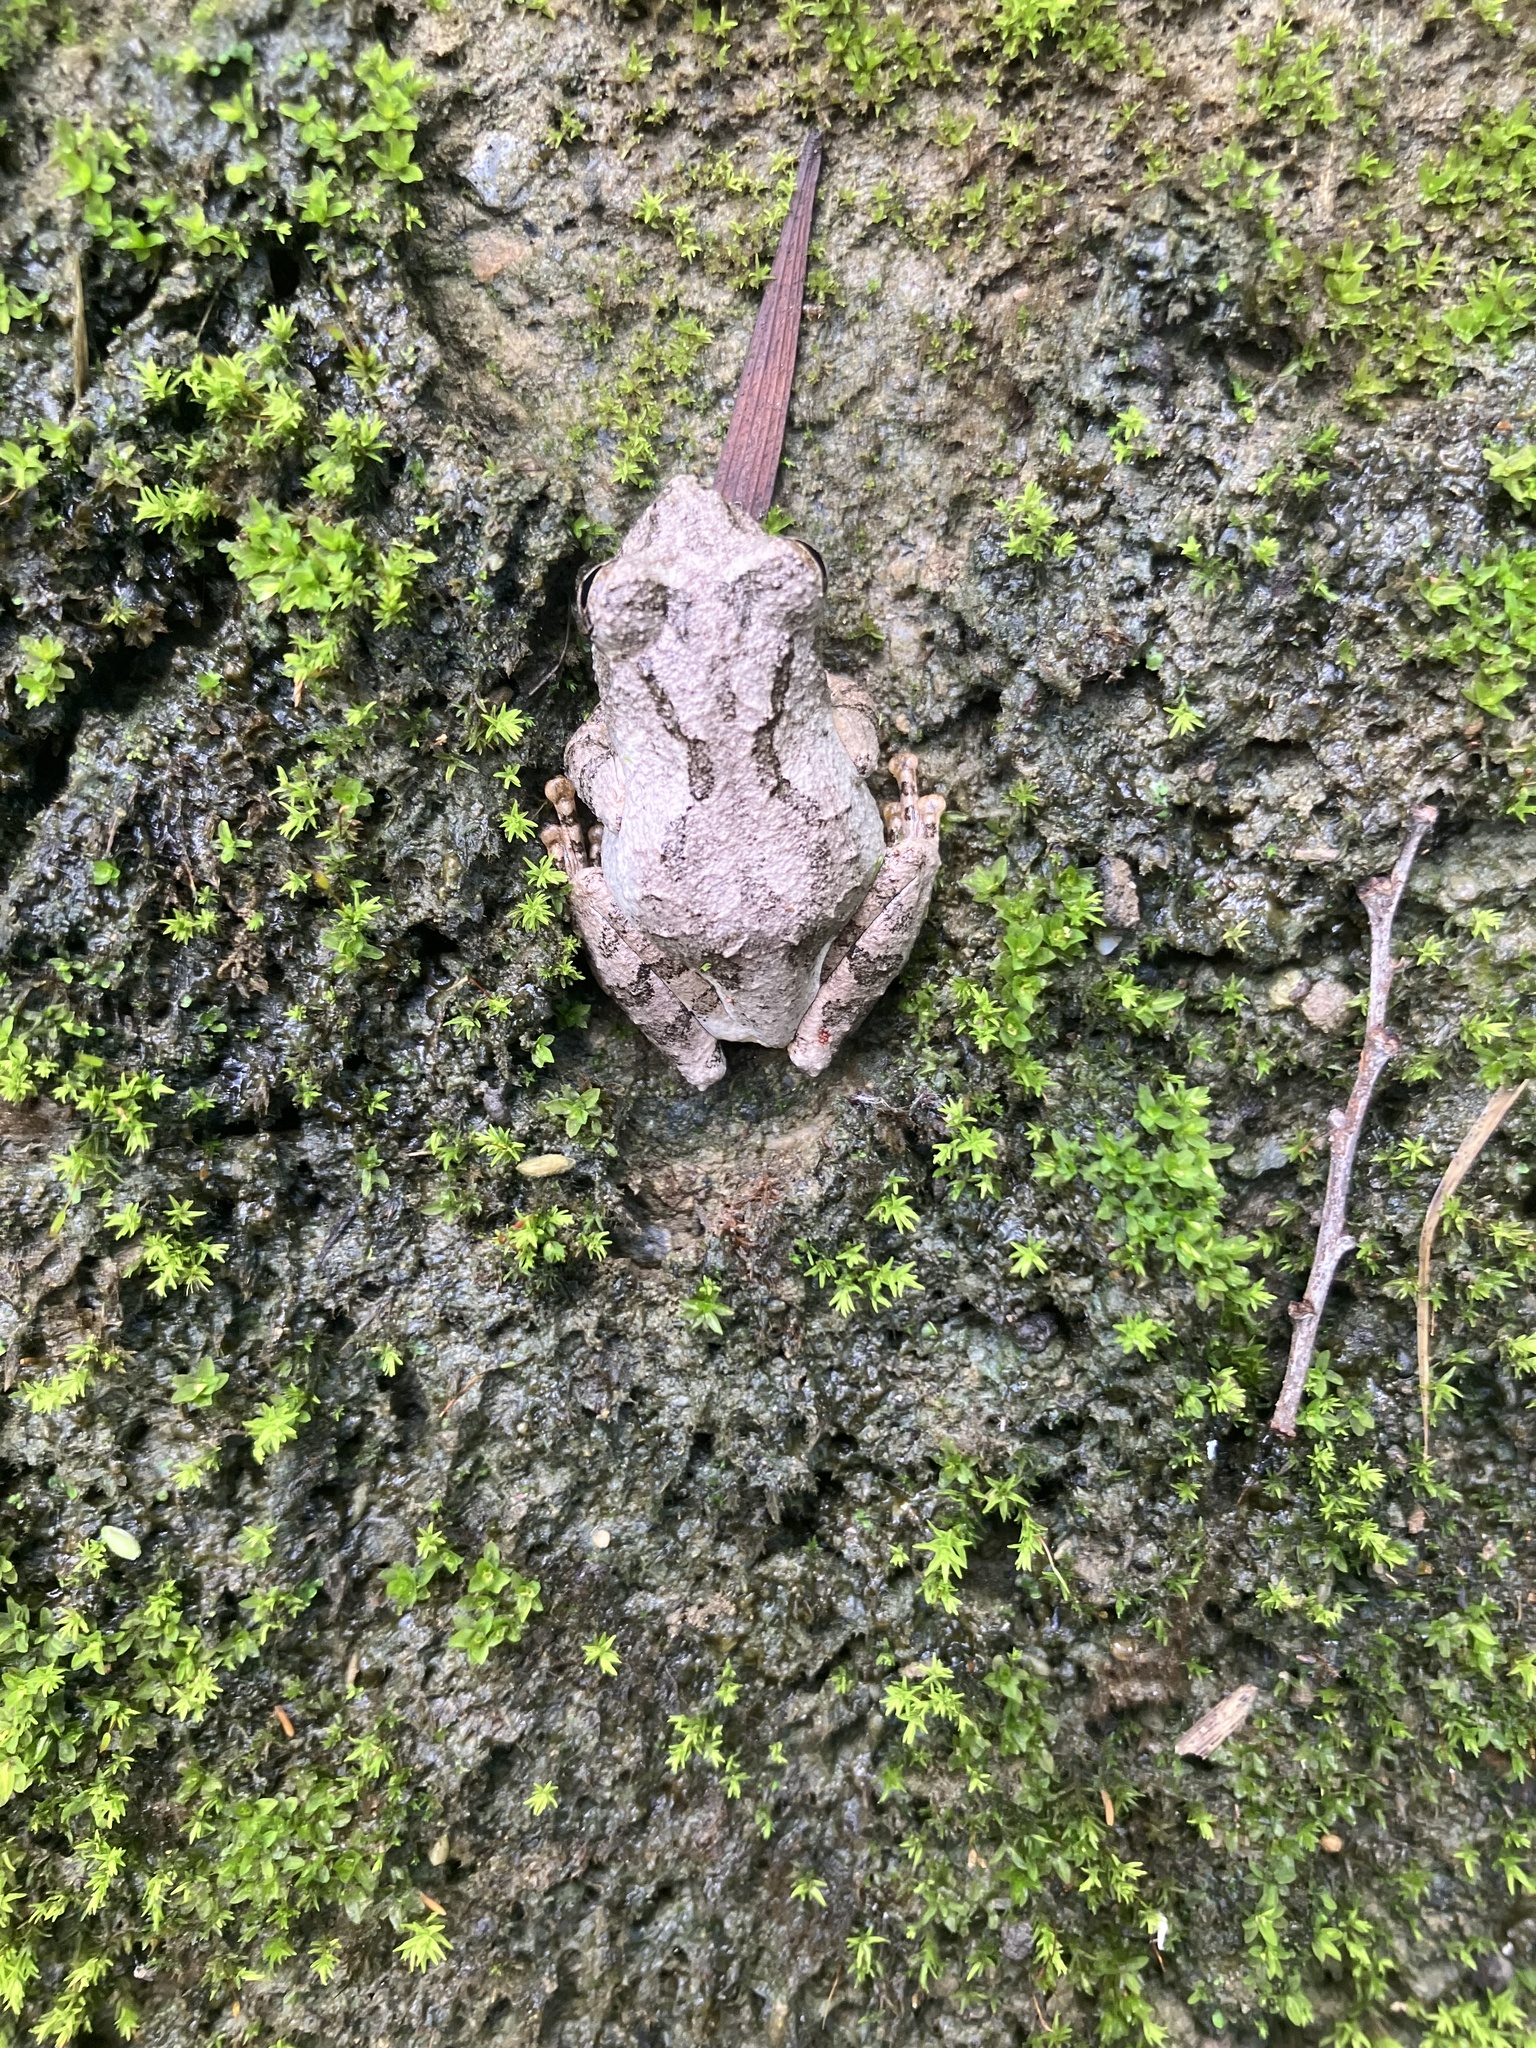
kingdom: Animalia
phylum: Chordata
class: Amphibia
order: Anura
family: Rhacophoridae
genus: Kurixalus
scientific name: Kurixalus idiootocus
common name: Temple treefrog
